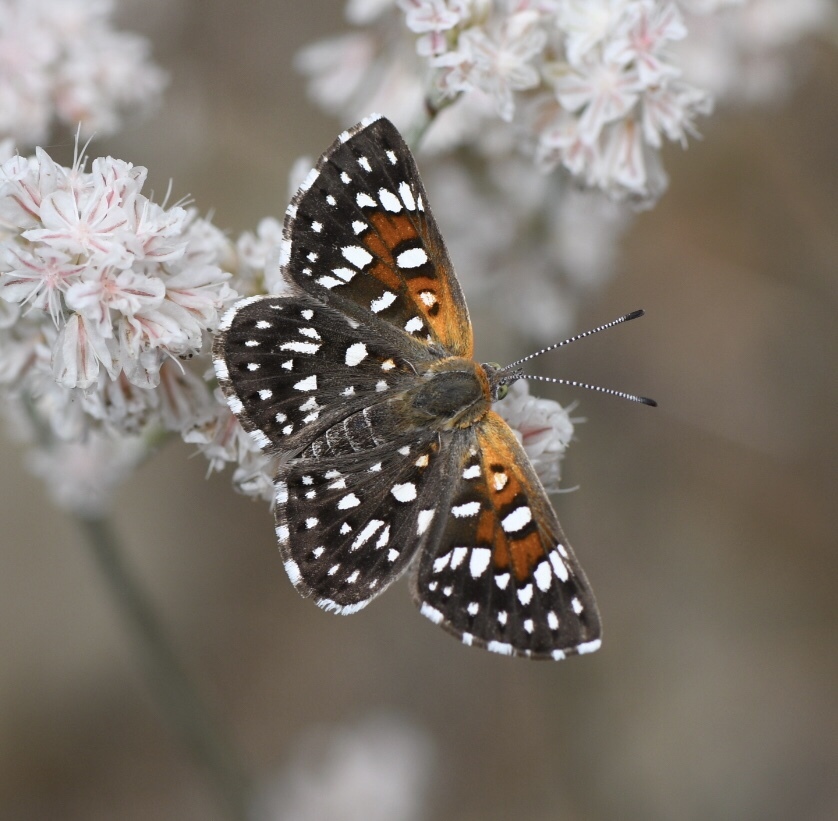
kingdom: Animalia
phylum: Arthropoda
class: Insecta
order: Lepidoptera
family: Riodinidae
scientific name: Riodinidae
